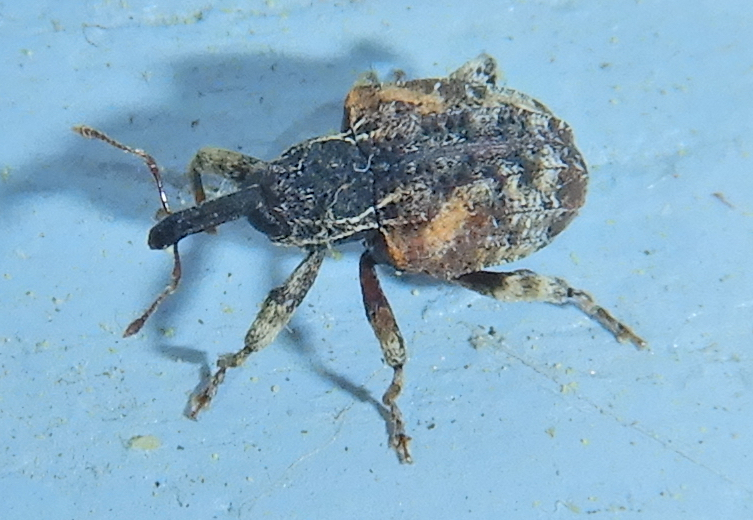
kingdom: Animalia
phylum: Arthropoda
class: Insecta
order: Coleoptera
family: Curculionidae
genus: Conotrachelus
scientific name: Conotrachelus anaglypticus
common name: Cambium curculio
